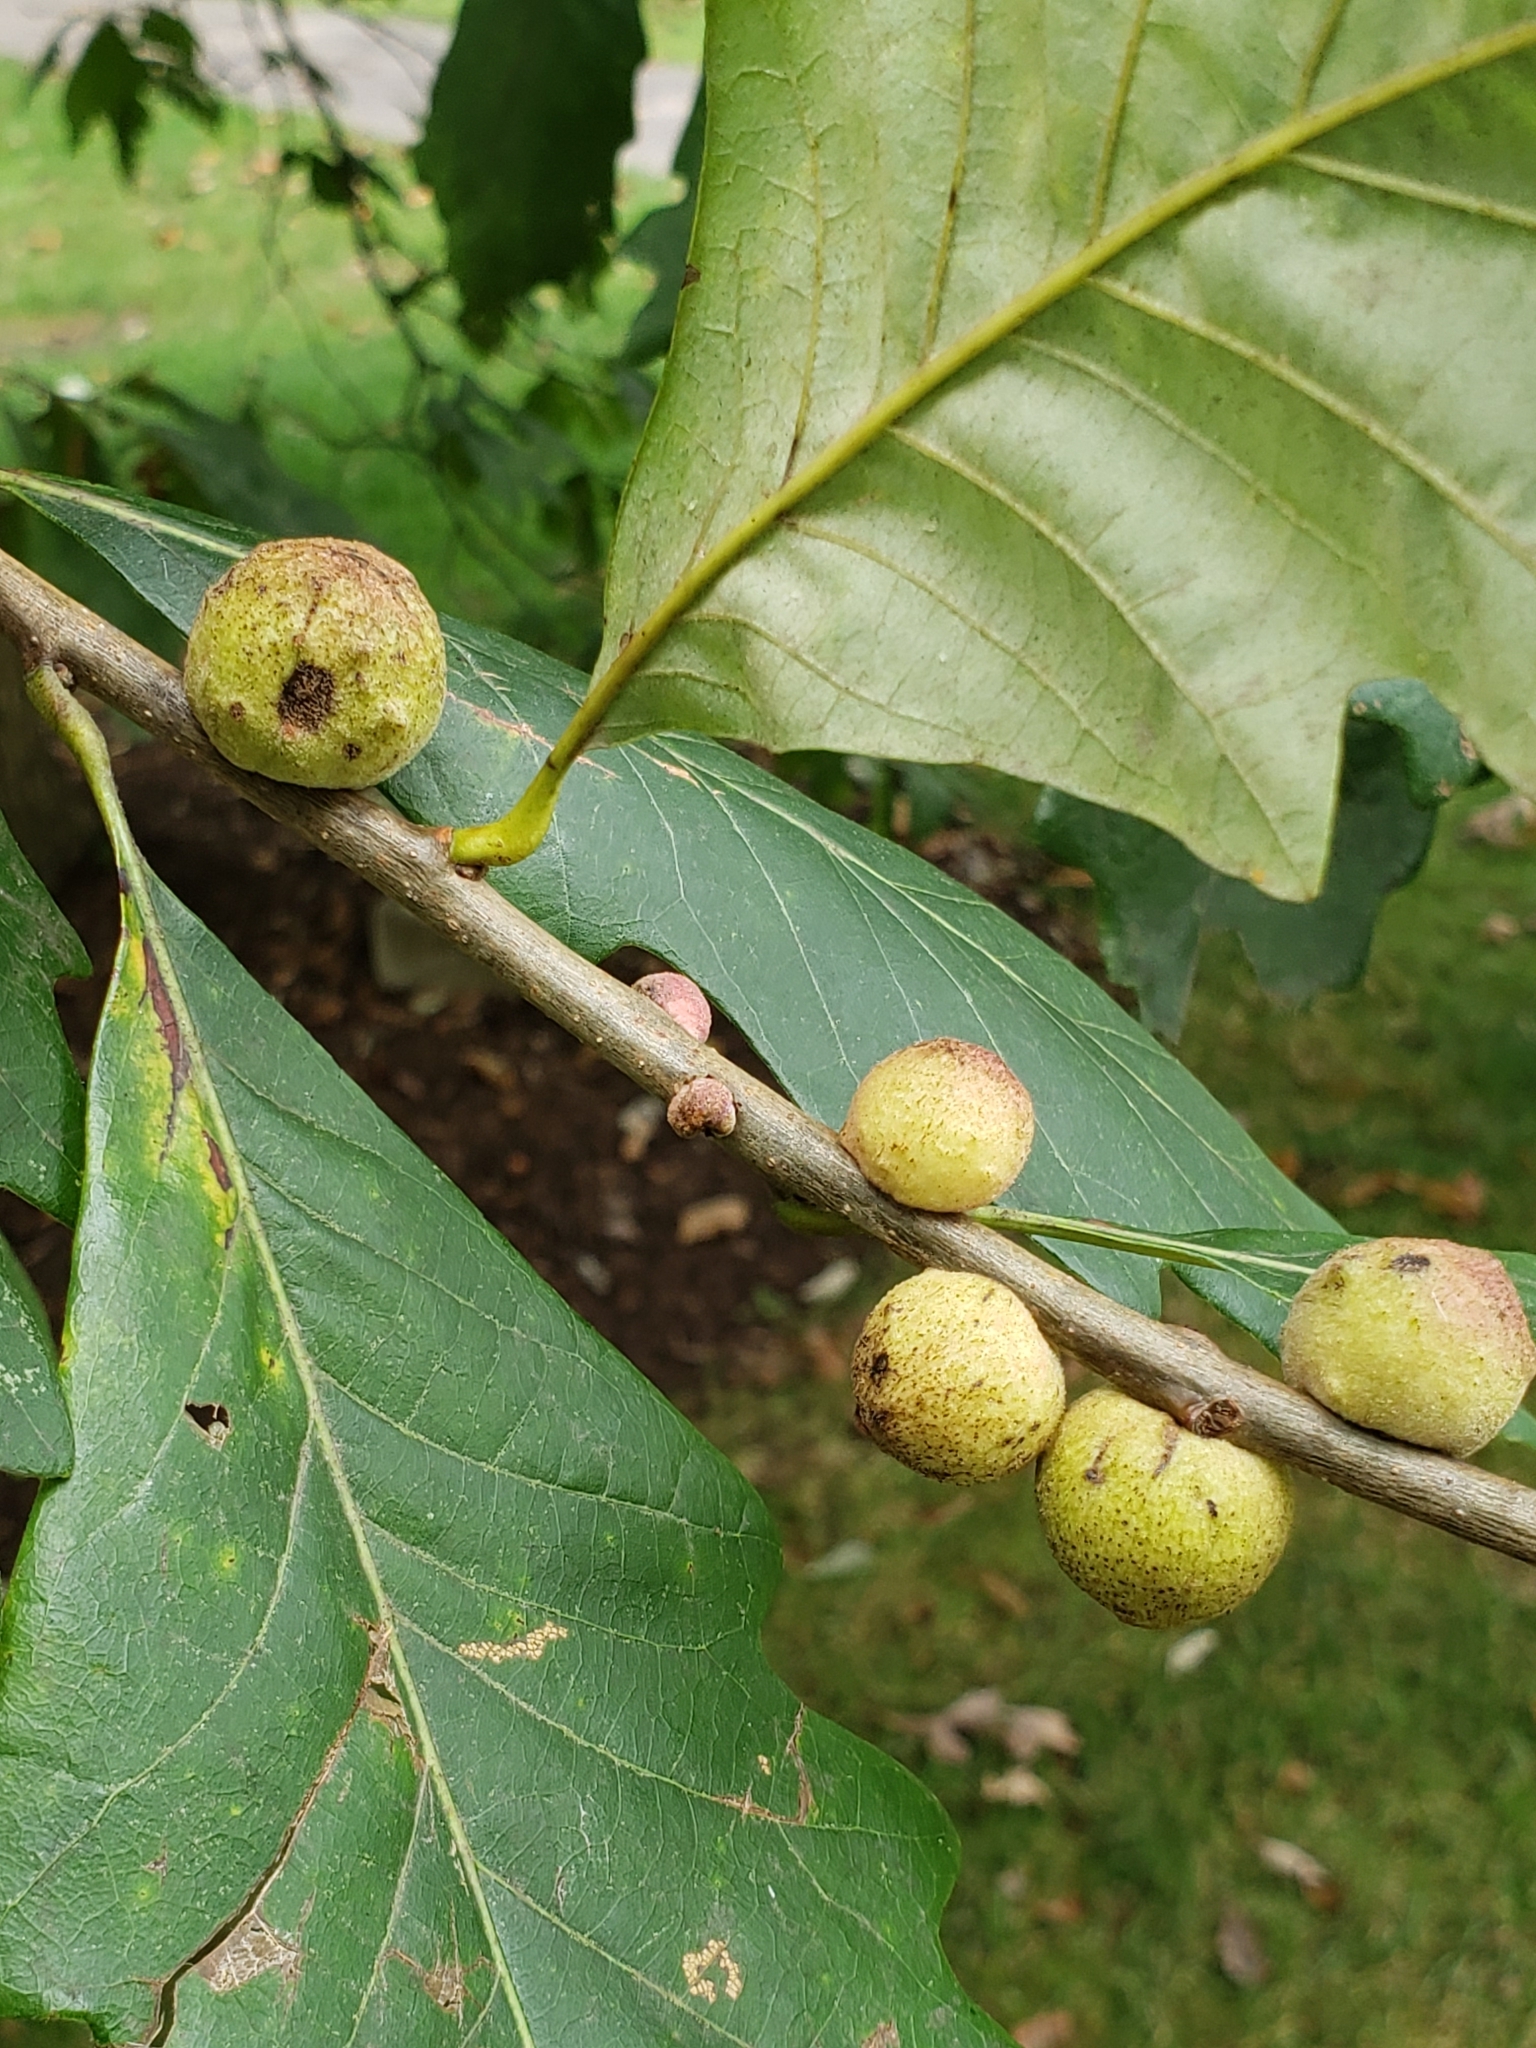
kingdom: Animalia
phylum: Arthropoda
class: Insecta
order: Hymenoptera
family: Cynipidae
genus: Disholcaspis
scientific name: Disholcaspis
